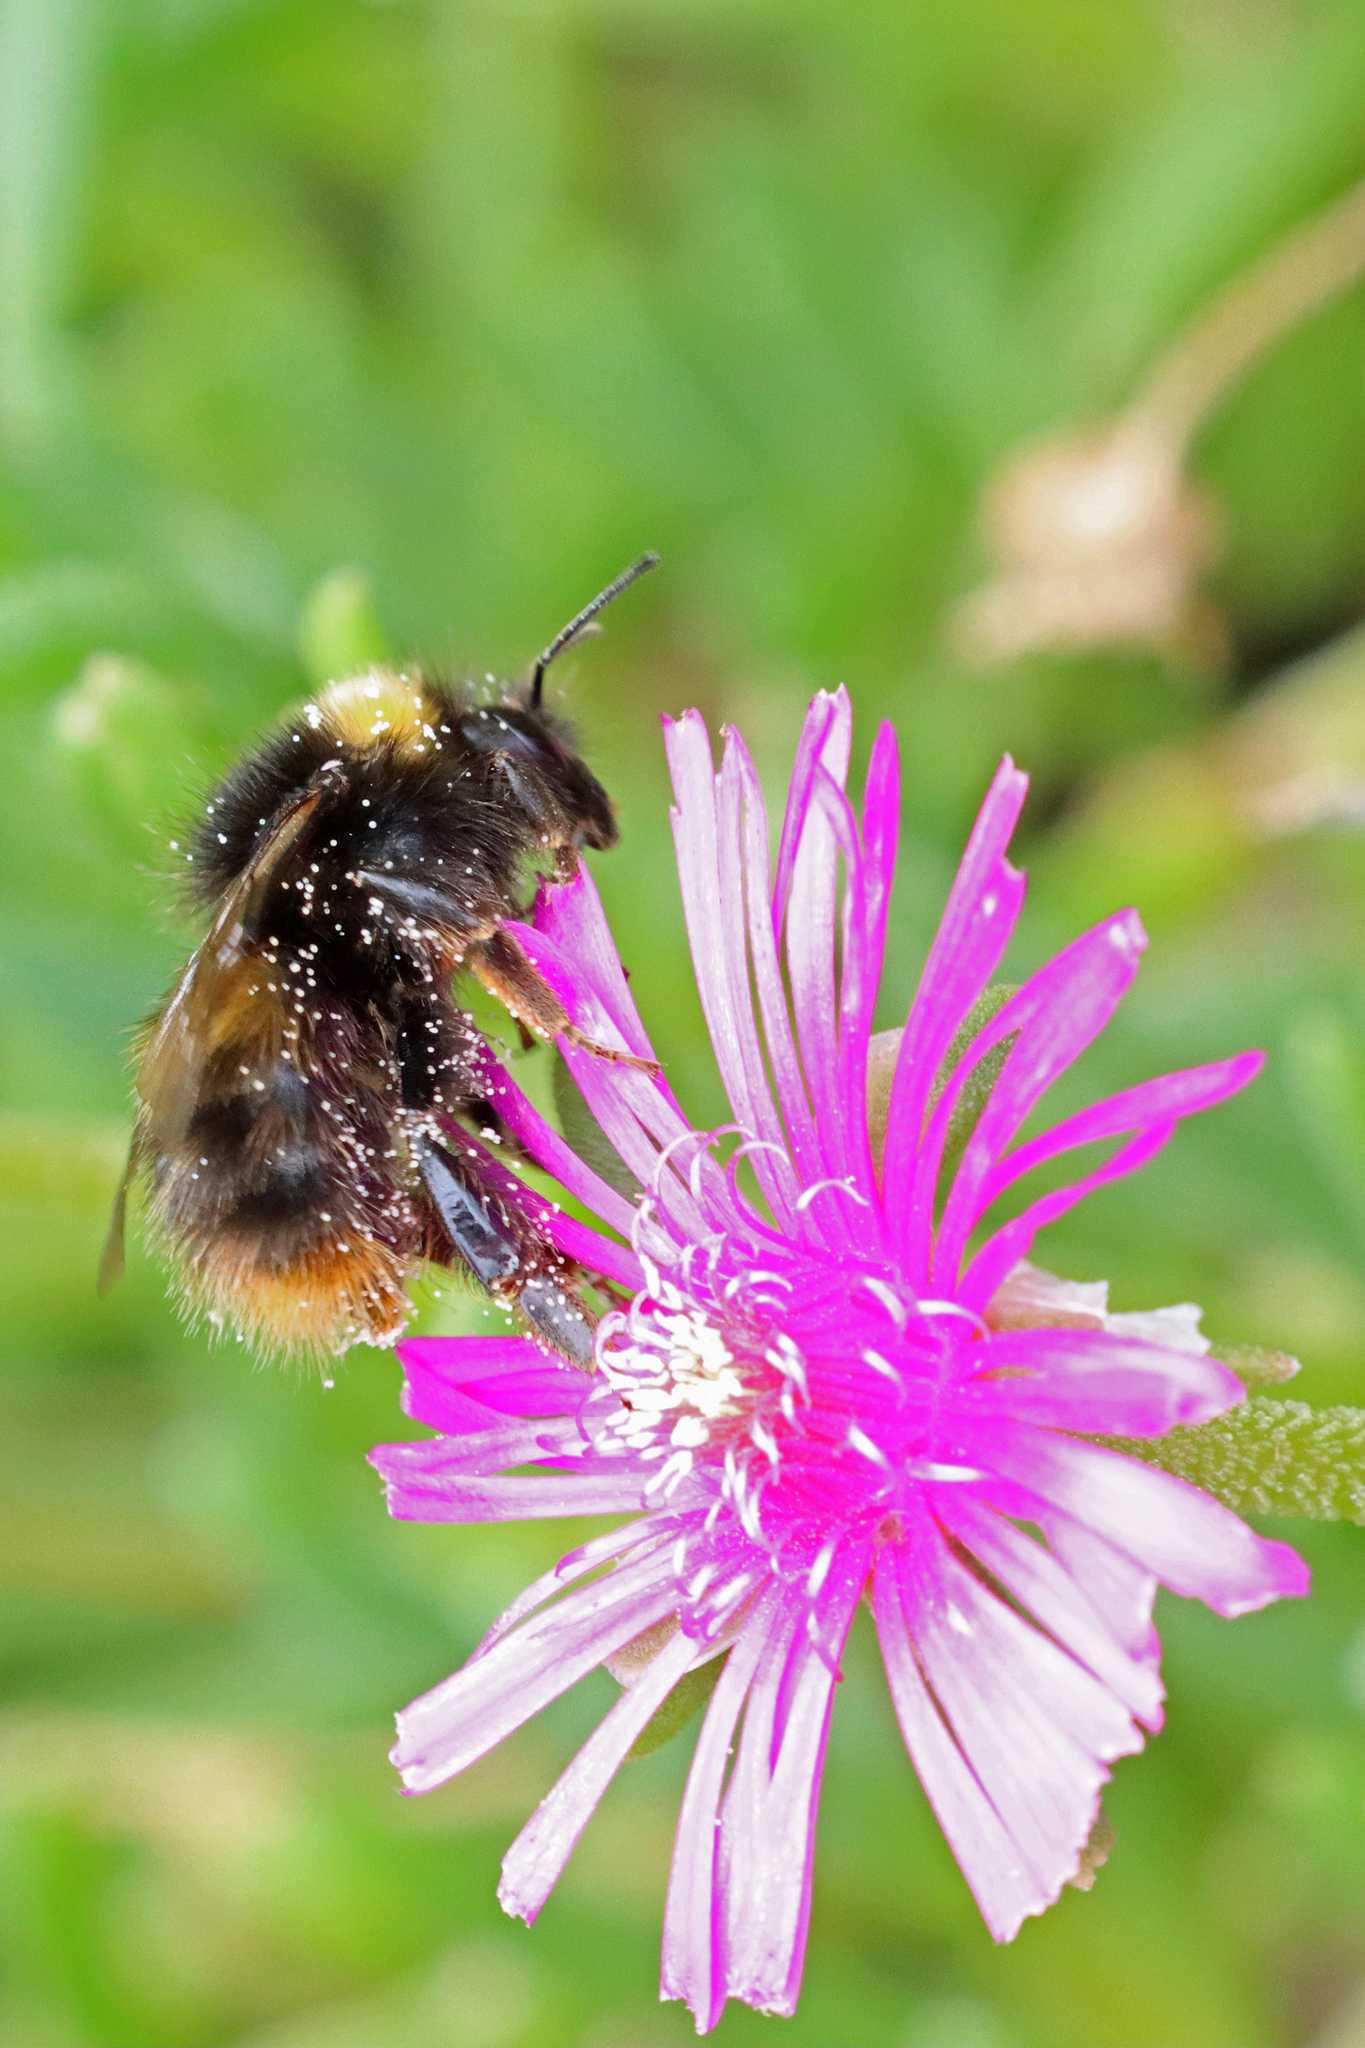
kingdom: Animalia
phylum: Arthropoda
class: Insecta
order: Hymenoptera
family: Apidae
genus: Bombus
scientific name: Bombus pratorum
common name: Early humble-bee
